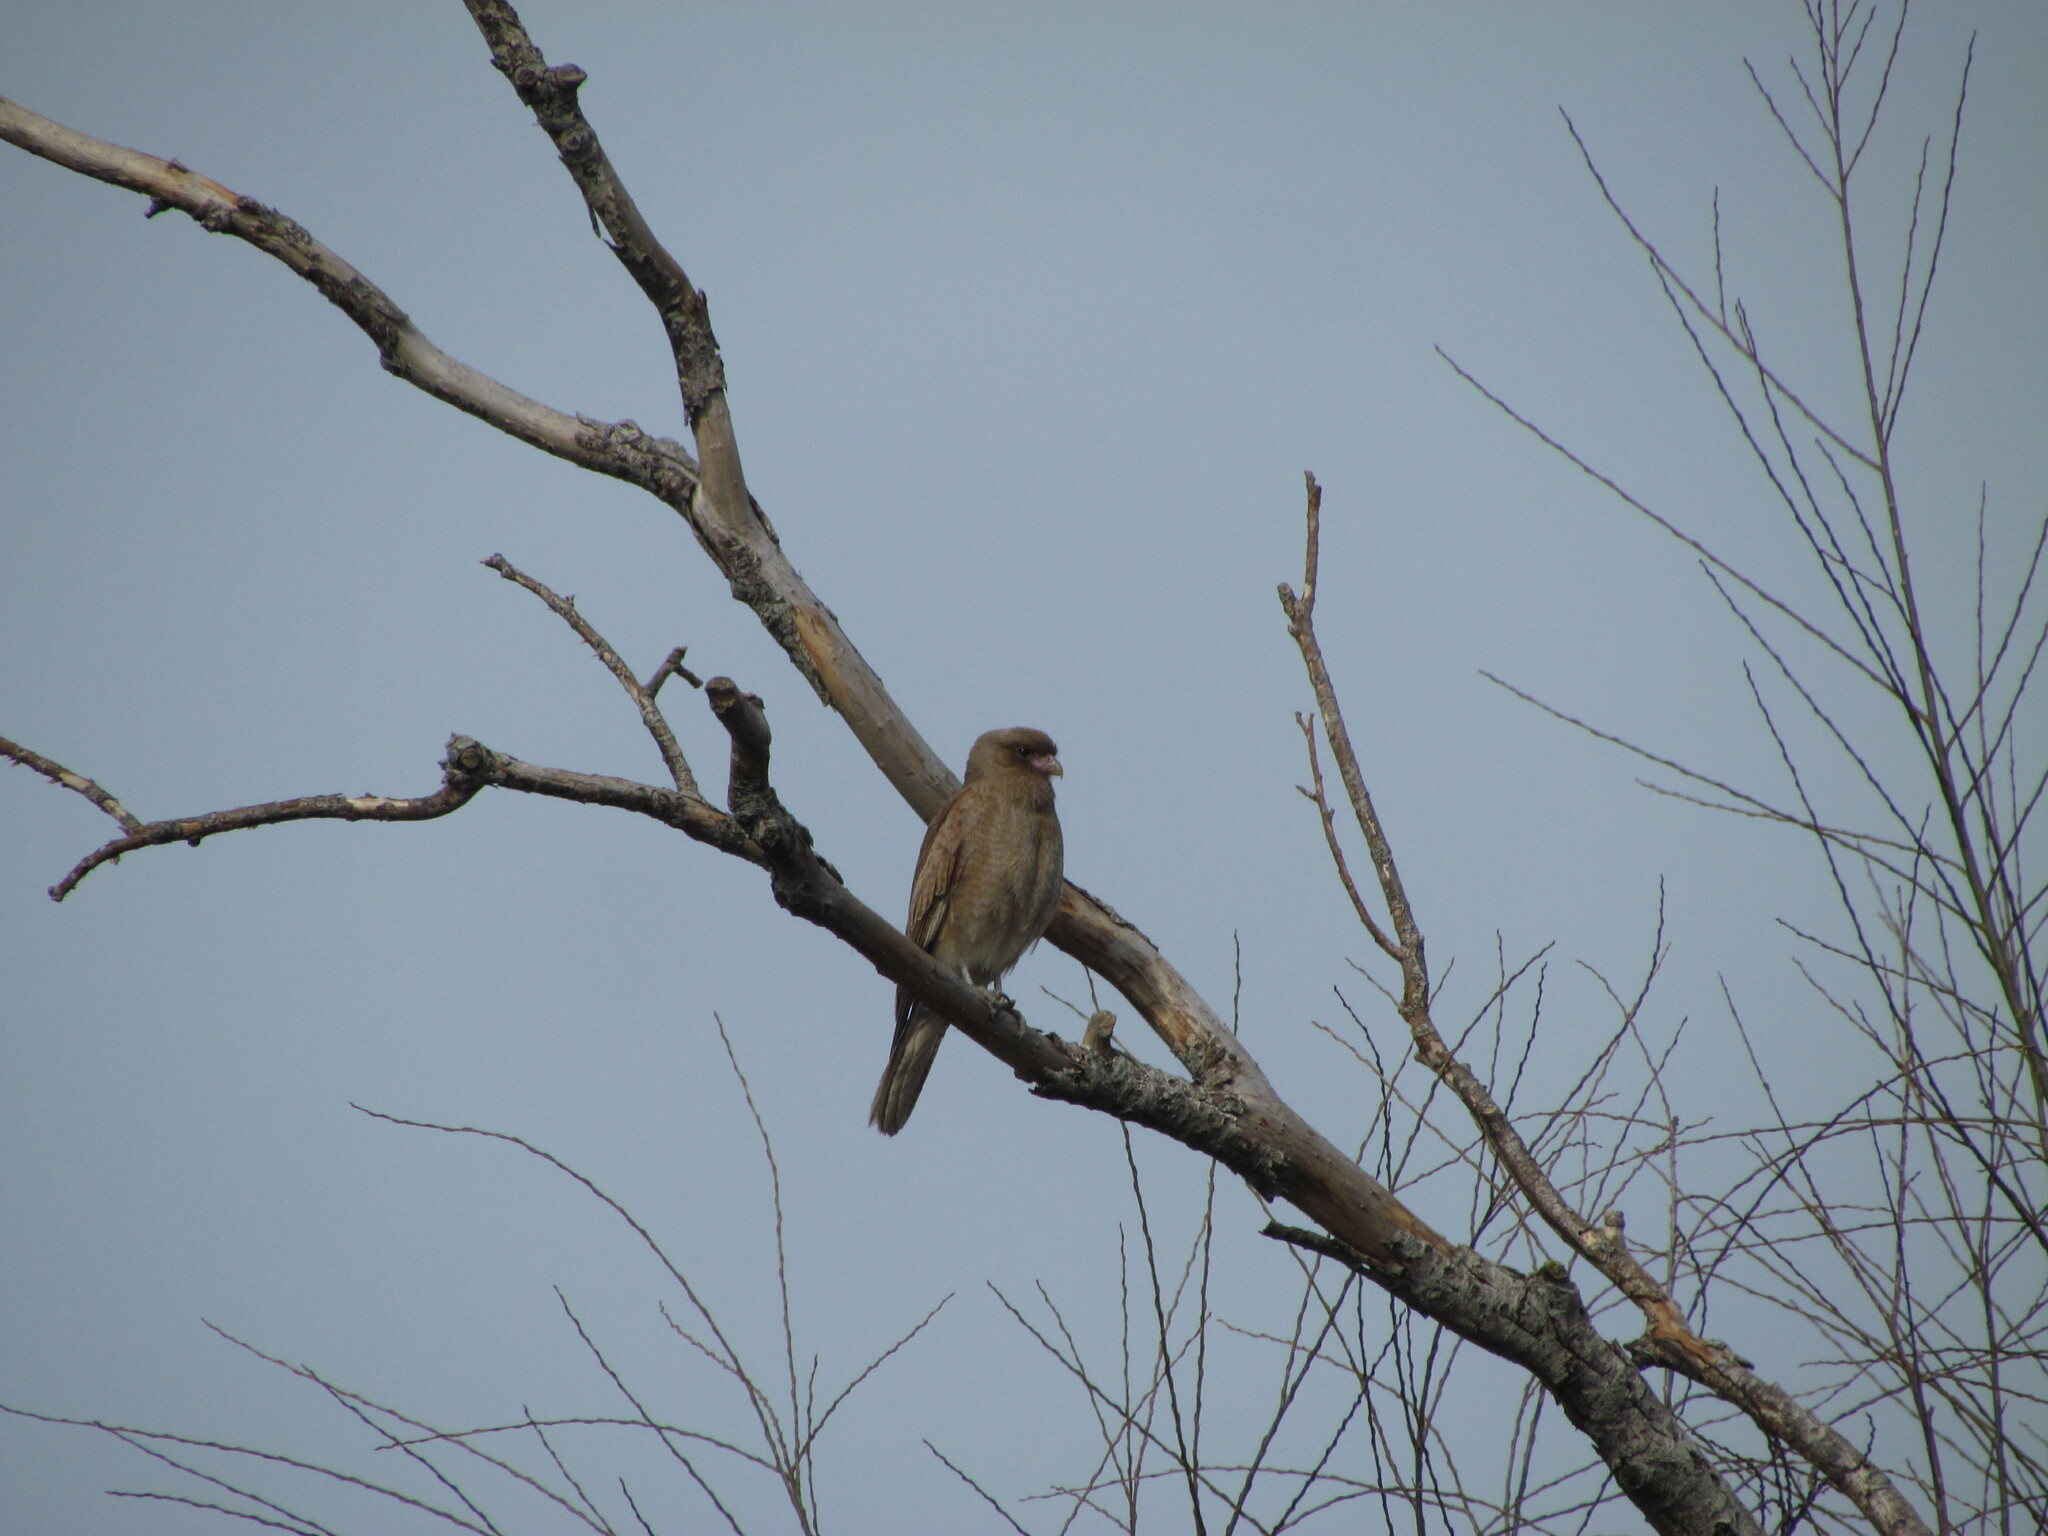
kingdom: Animalia
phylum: Chordata
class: Aves
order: Falconiformes
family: Falconidae
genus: Daptrius
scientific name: Daptrius
